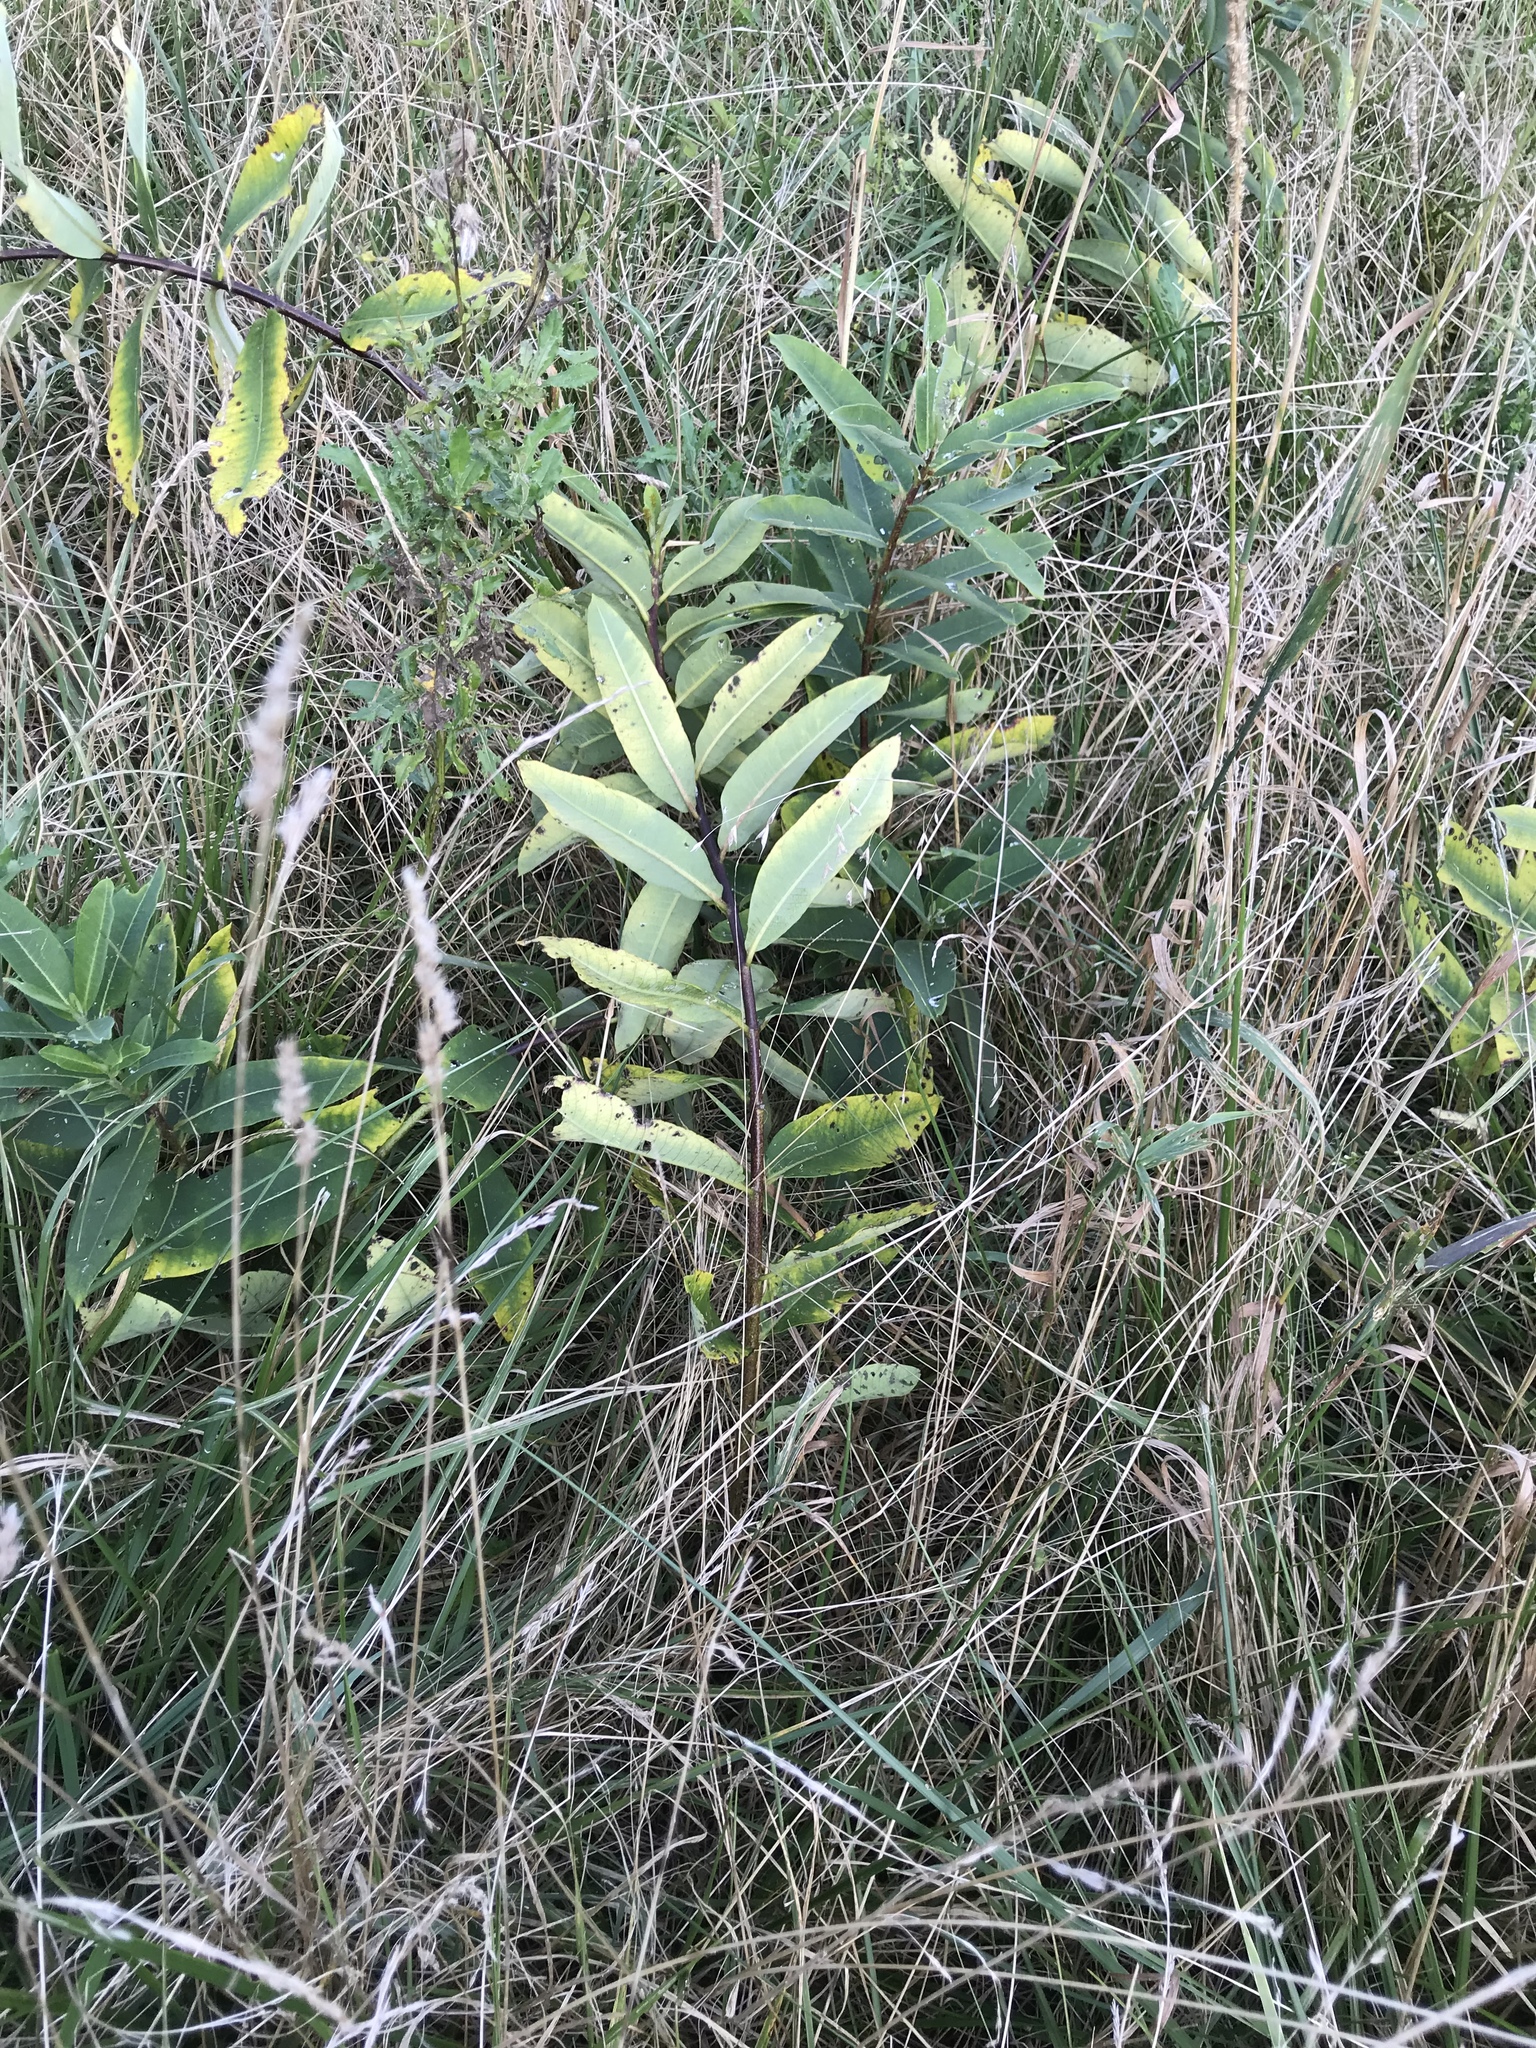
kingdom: Plantae
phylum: Tracheophyta
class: Magnoliopsida
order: Gentianales
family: Apocynaceae
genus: Asclepias
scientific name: Asclepias syriaca
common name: Common milkweed
